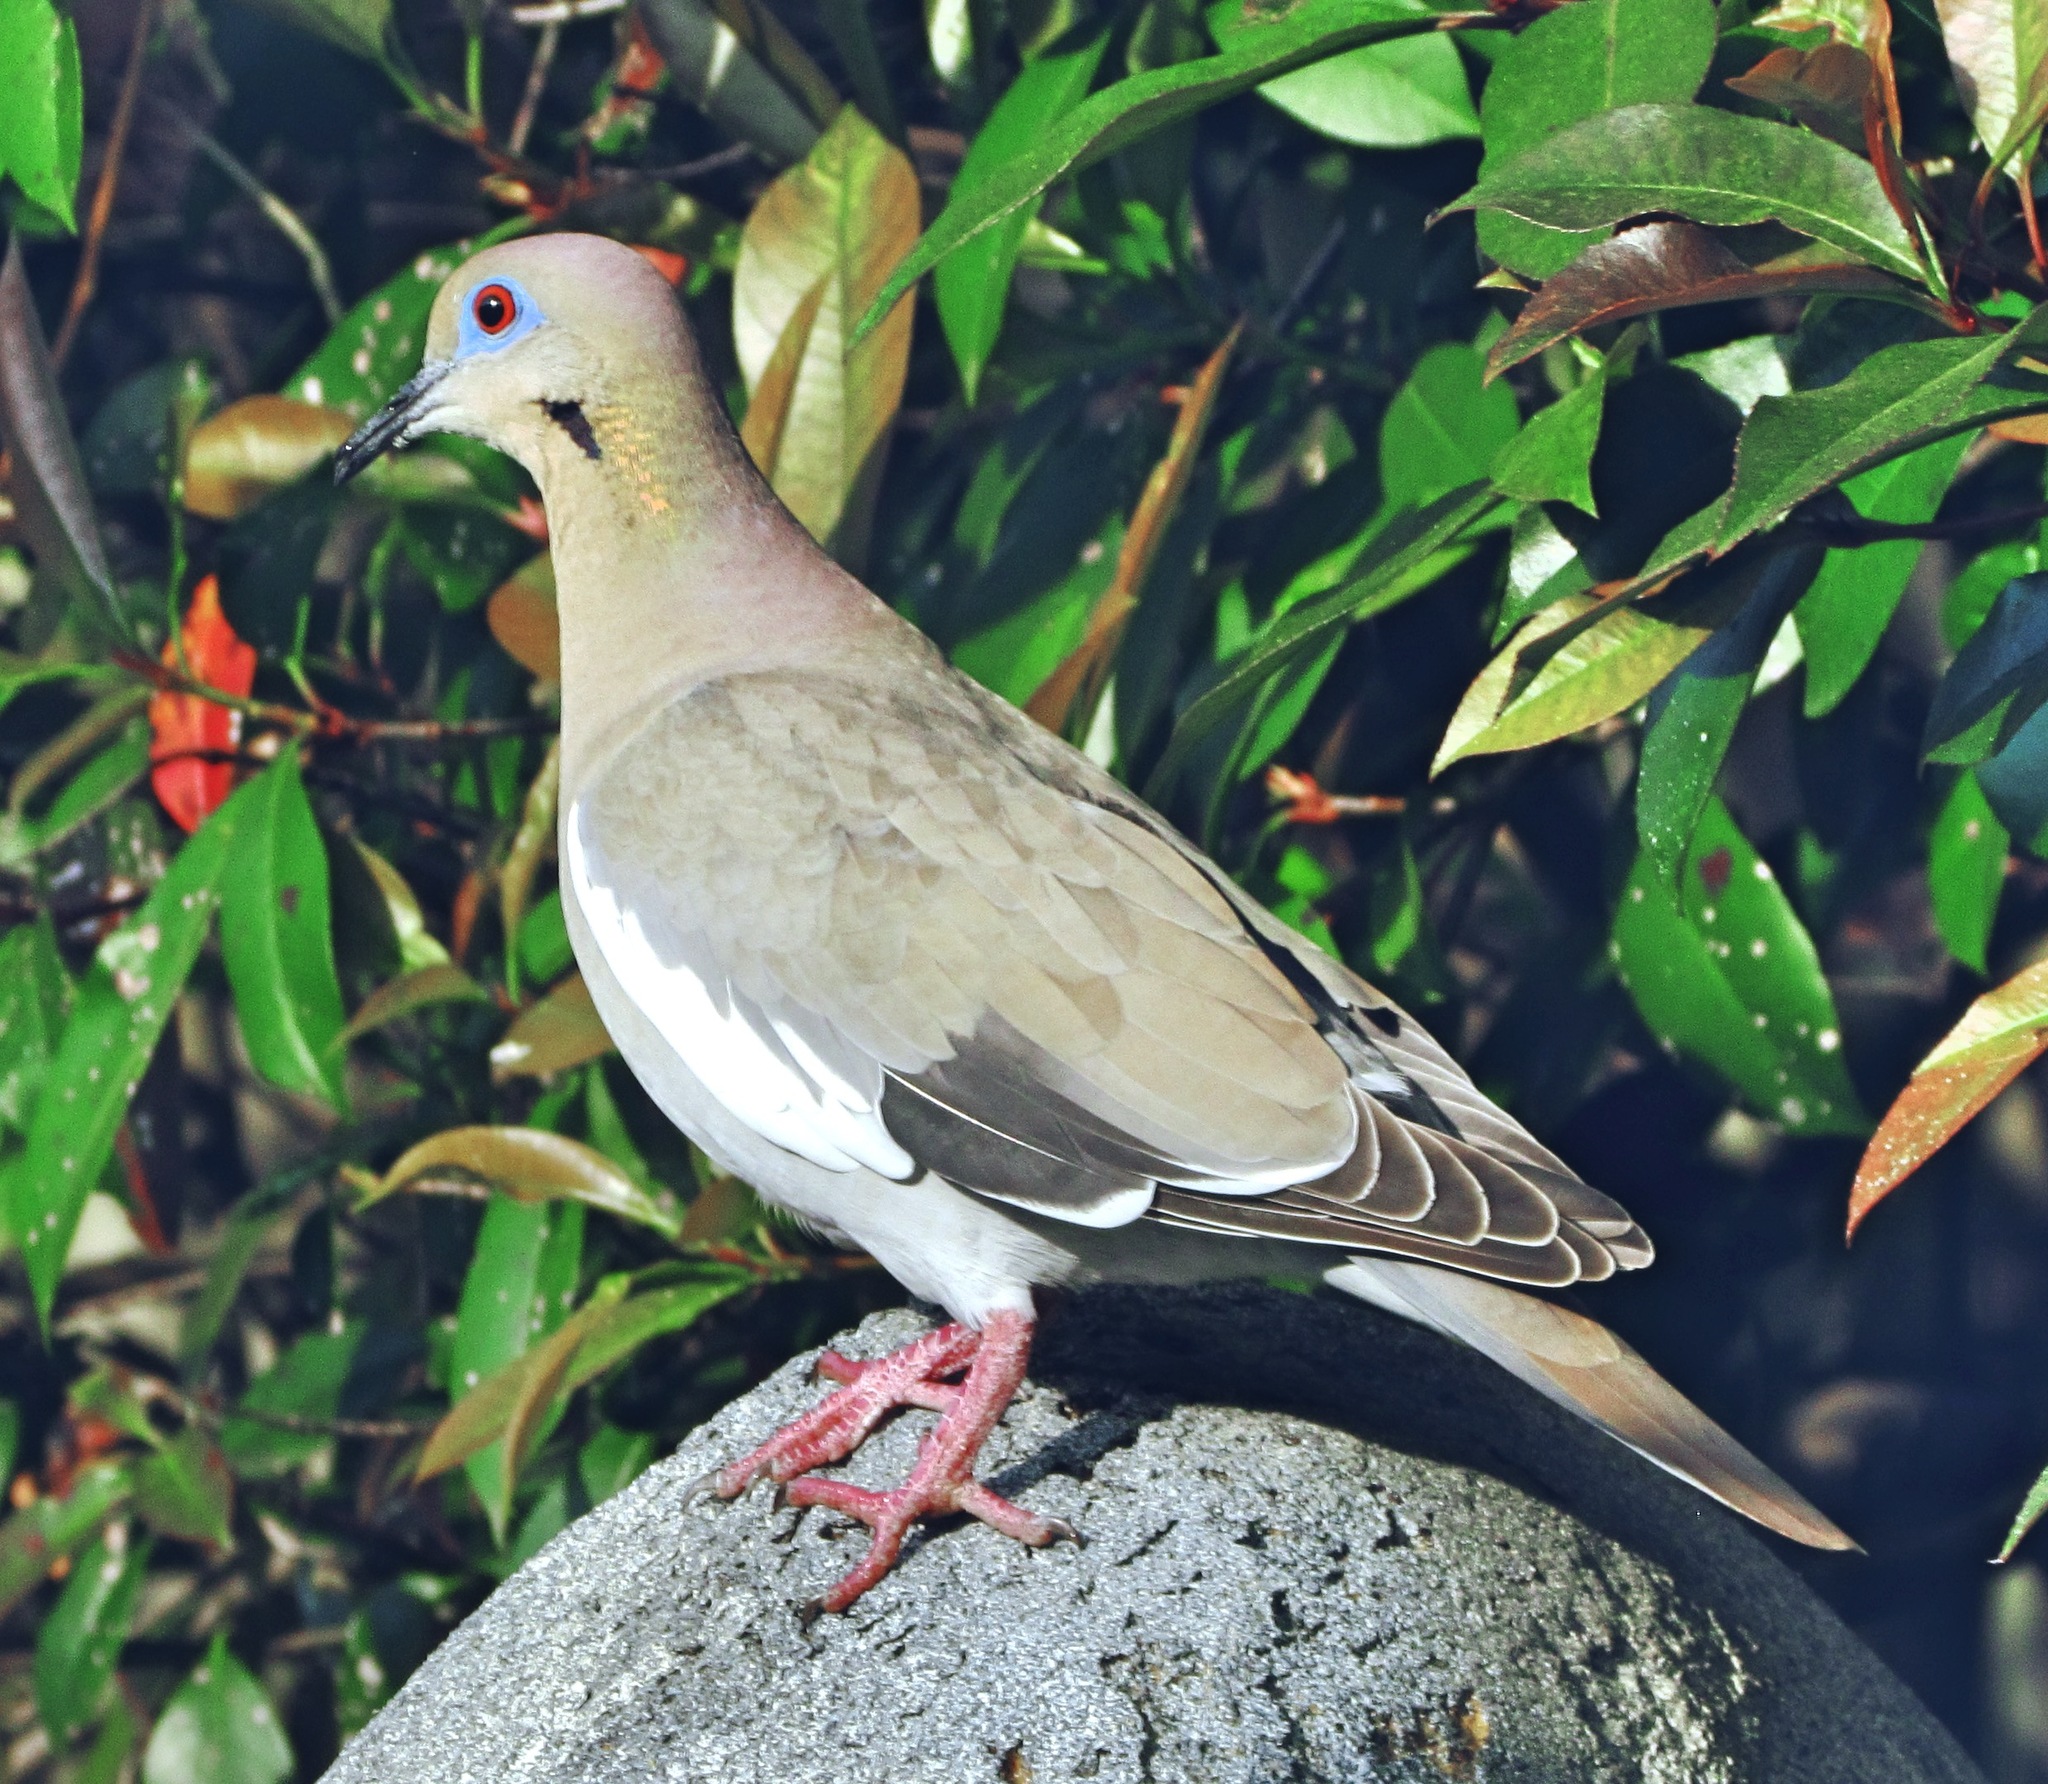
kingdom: Animalia
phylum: Chordata
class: Aves
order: Columbiformes
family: Columbidae
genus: Zenaida
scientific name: Zenaida asiatica
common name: White-winged dove
